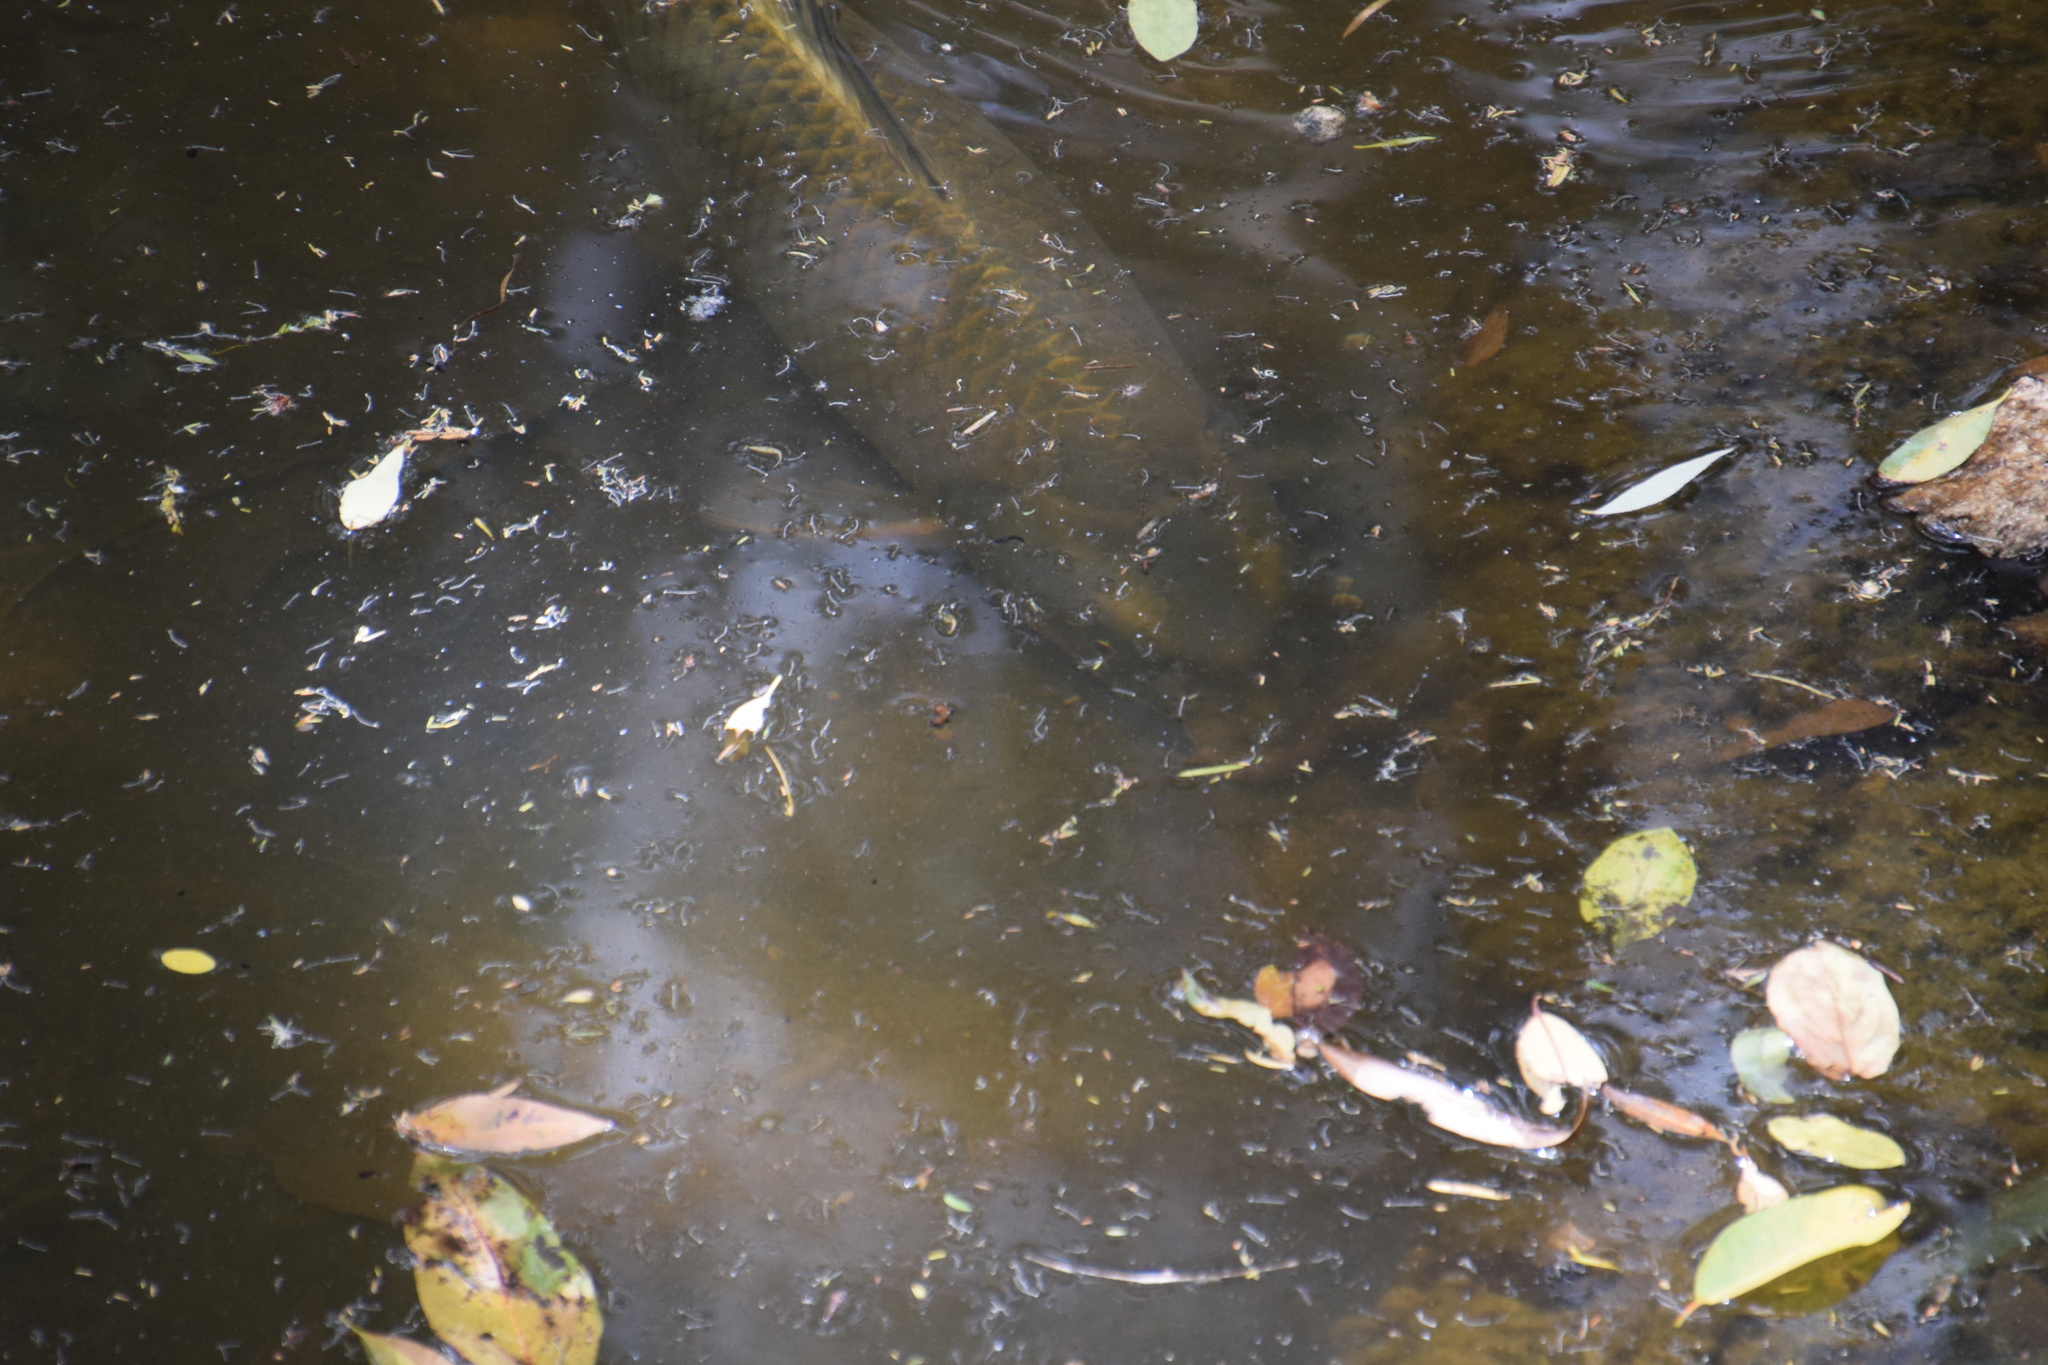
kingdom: Animalia
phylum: Chordata
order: Cypriniformes
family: Cyprinidae
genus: Cyprinus
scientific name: Cyprinus carpio
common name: Common carp
